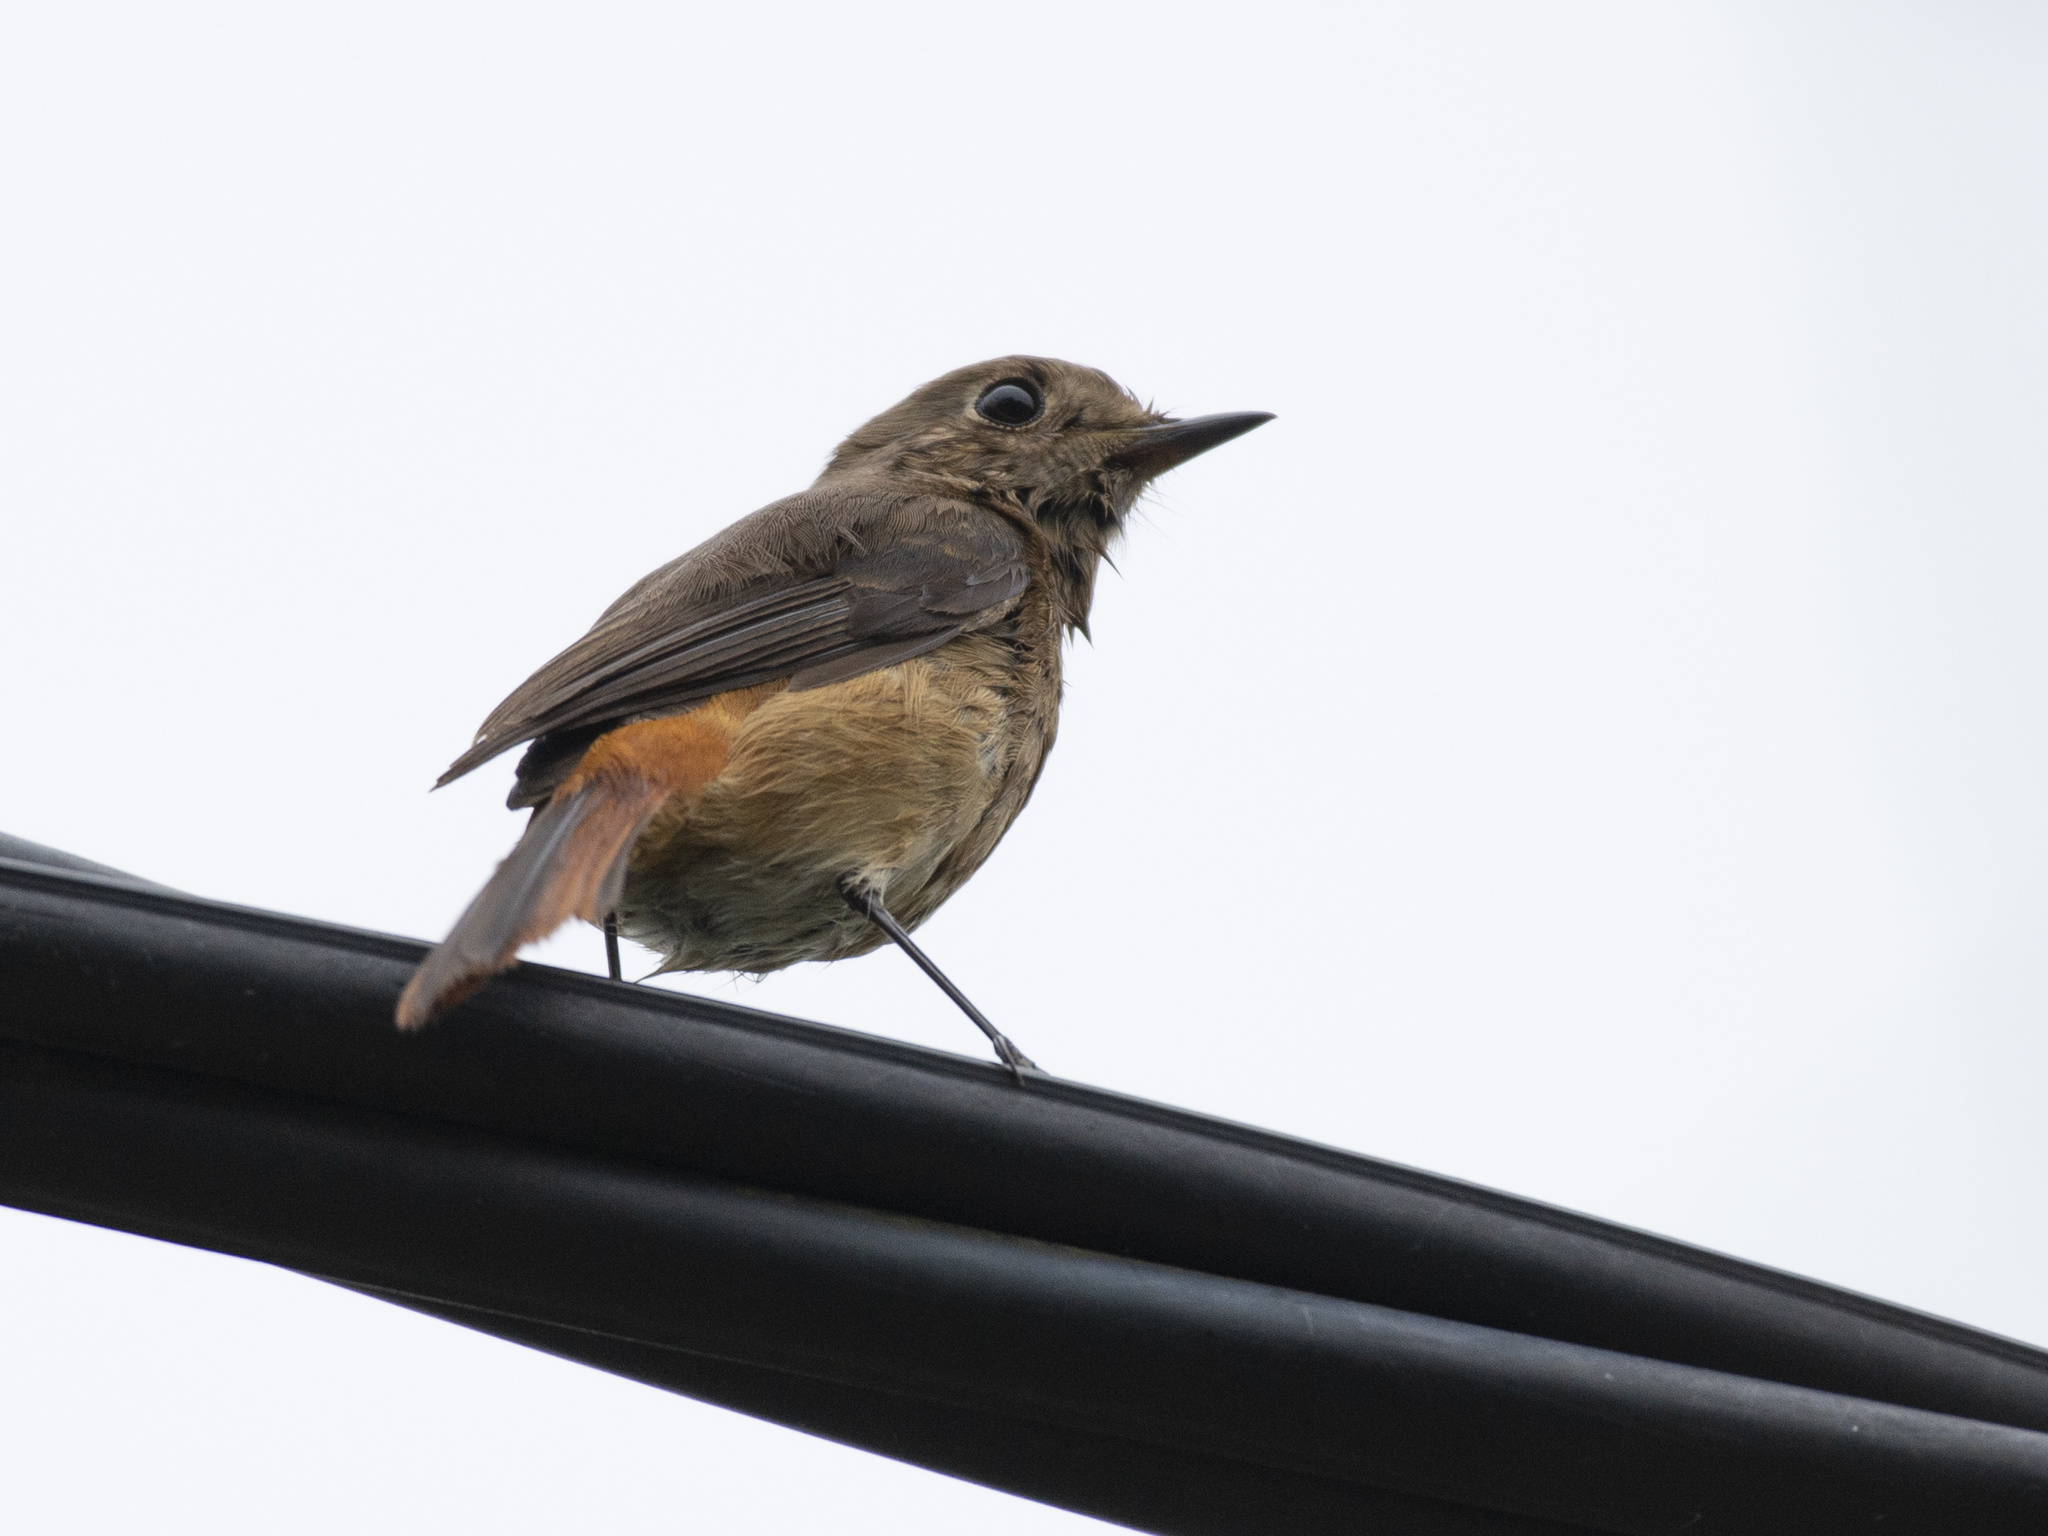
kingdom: Animalia
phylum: Chordata
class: Aves
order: Passeriformes
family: Muscicapidae
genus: Phoenicurus
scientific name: Phoenicurus auroreus
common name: Daurian redstart
